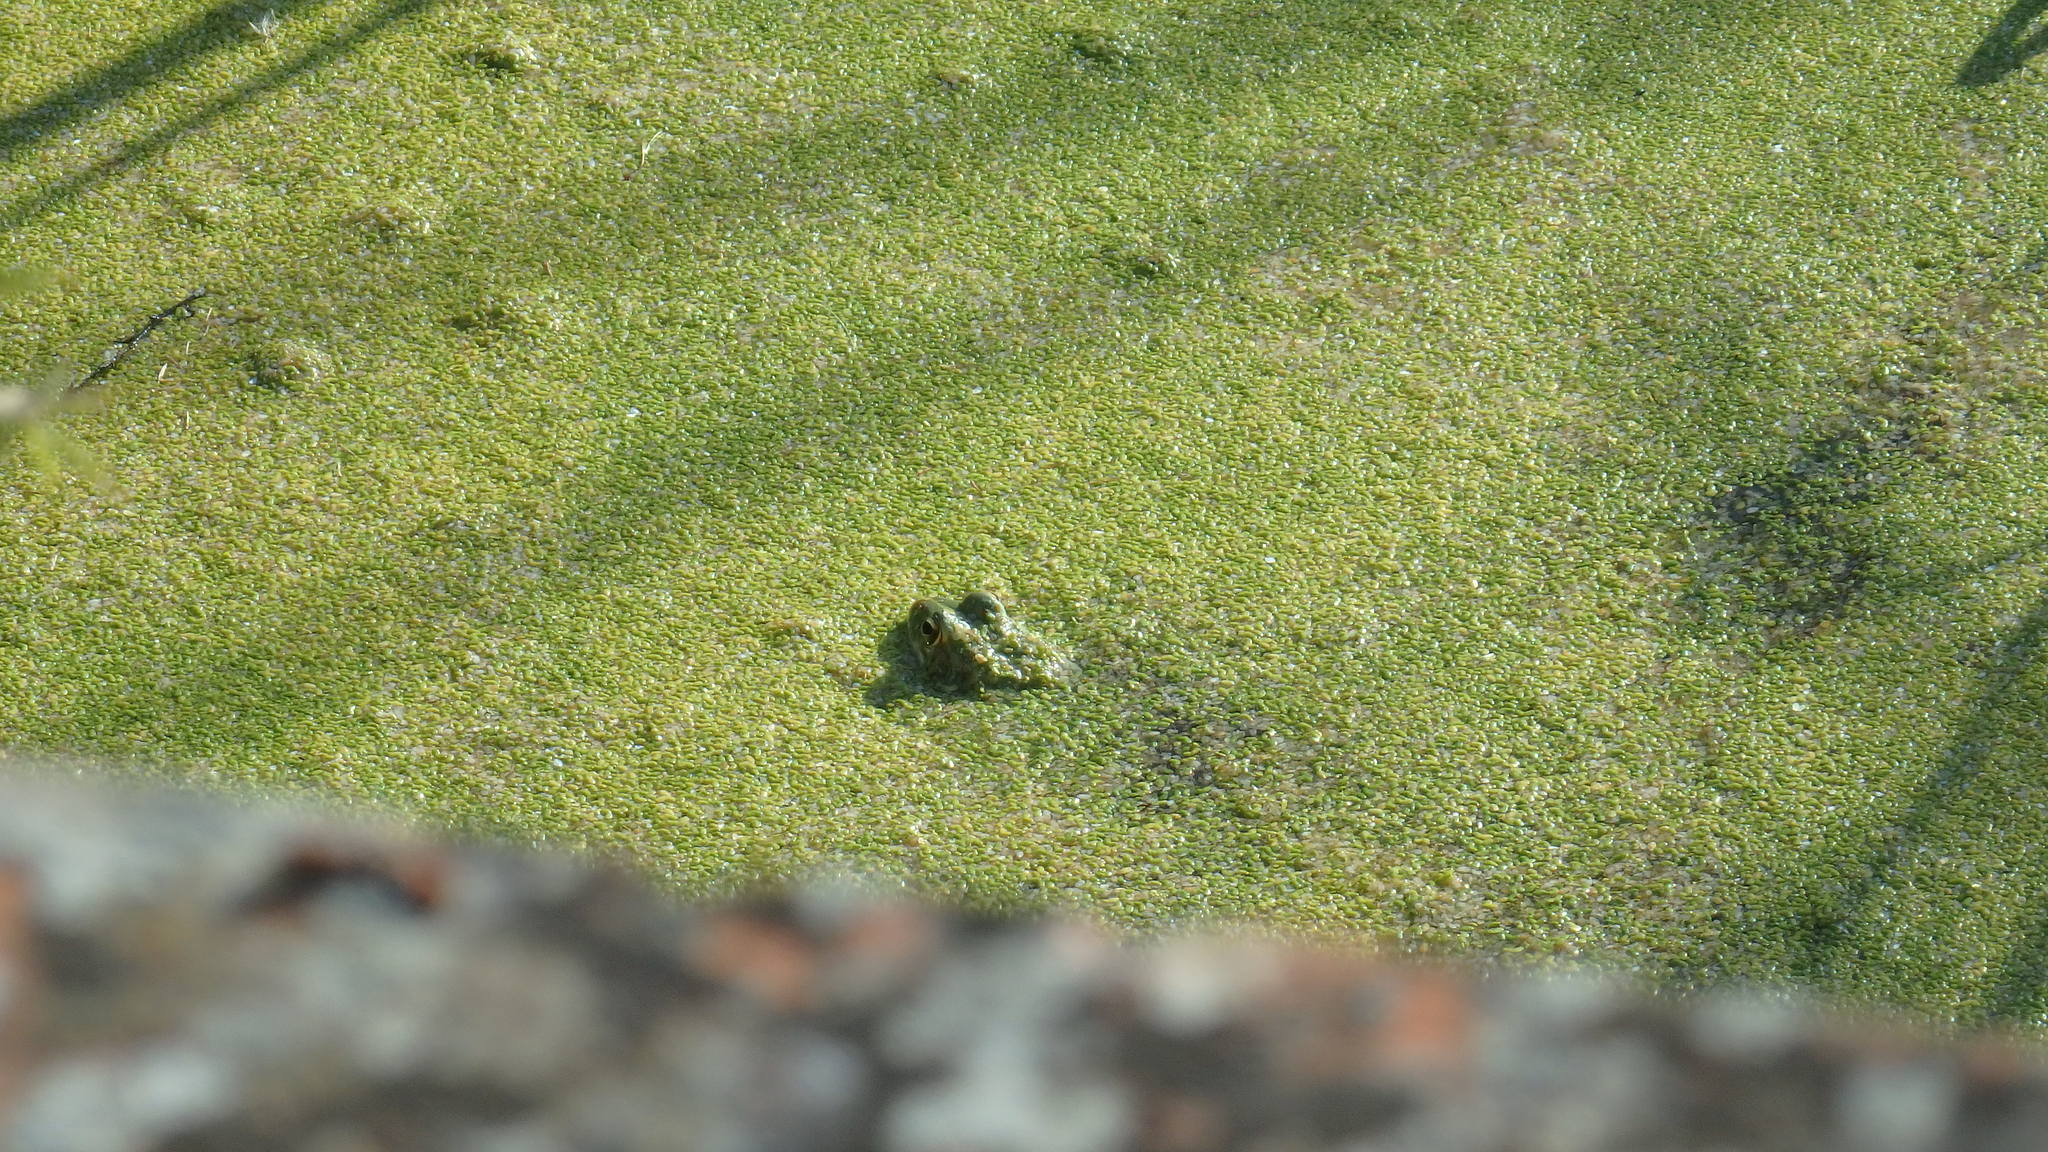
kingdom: Animalia
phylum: Chordata
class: Amphibia
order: Anura
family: Ranidae
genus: Pelophylax
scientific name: Pelophylax perezi
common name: Perez's frog
